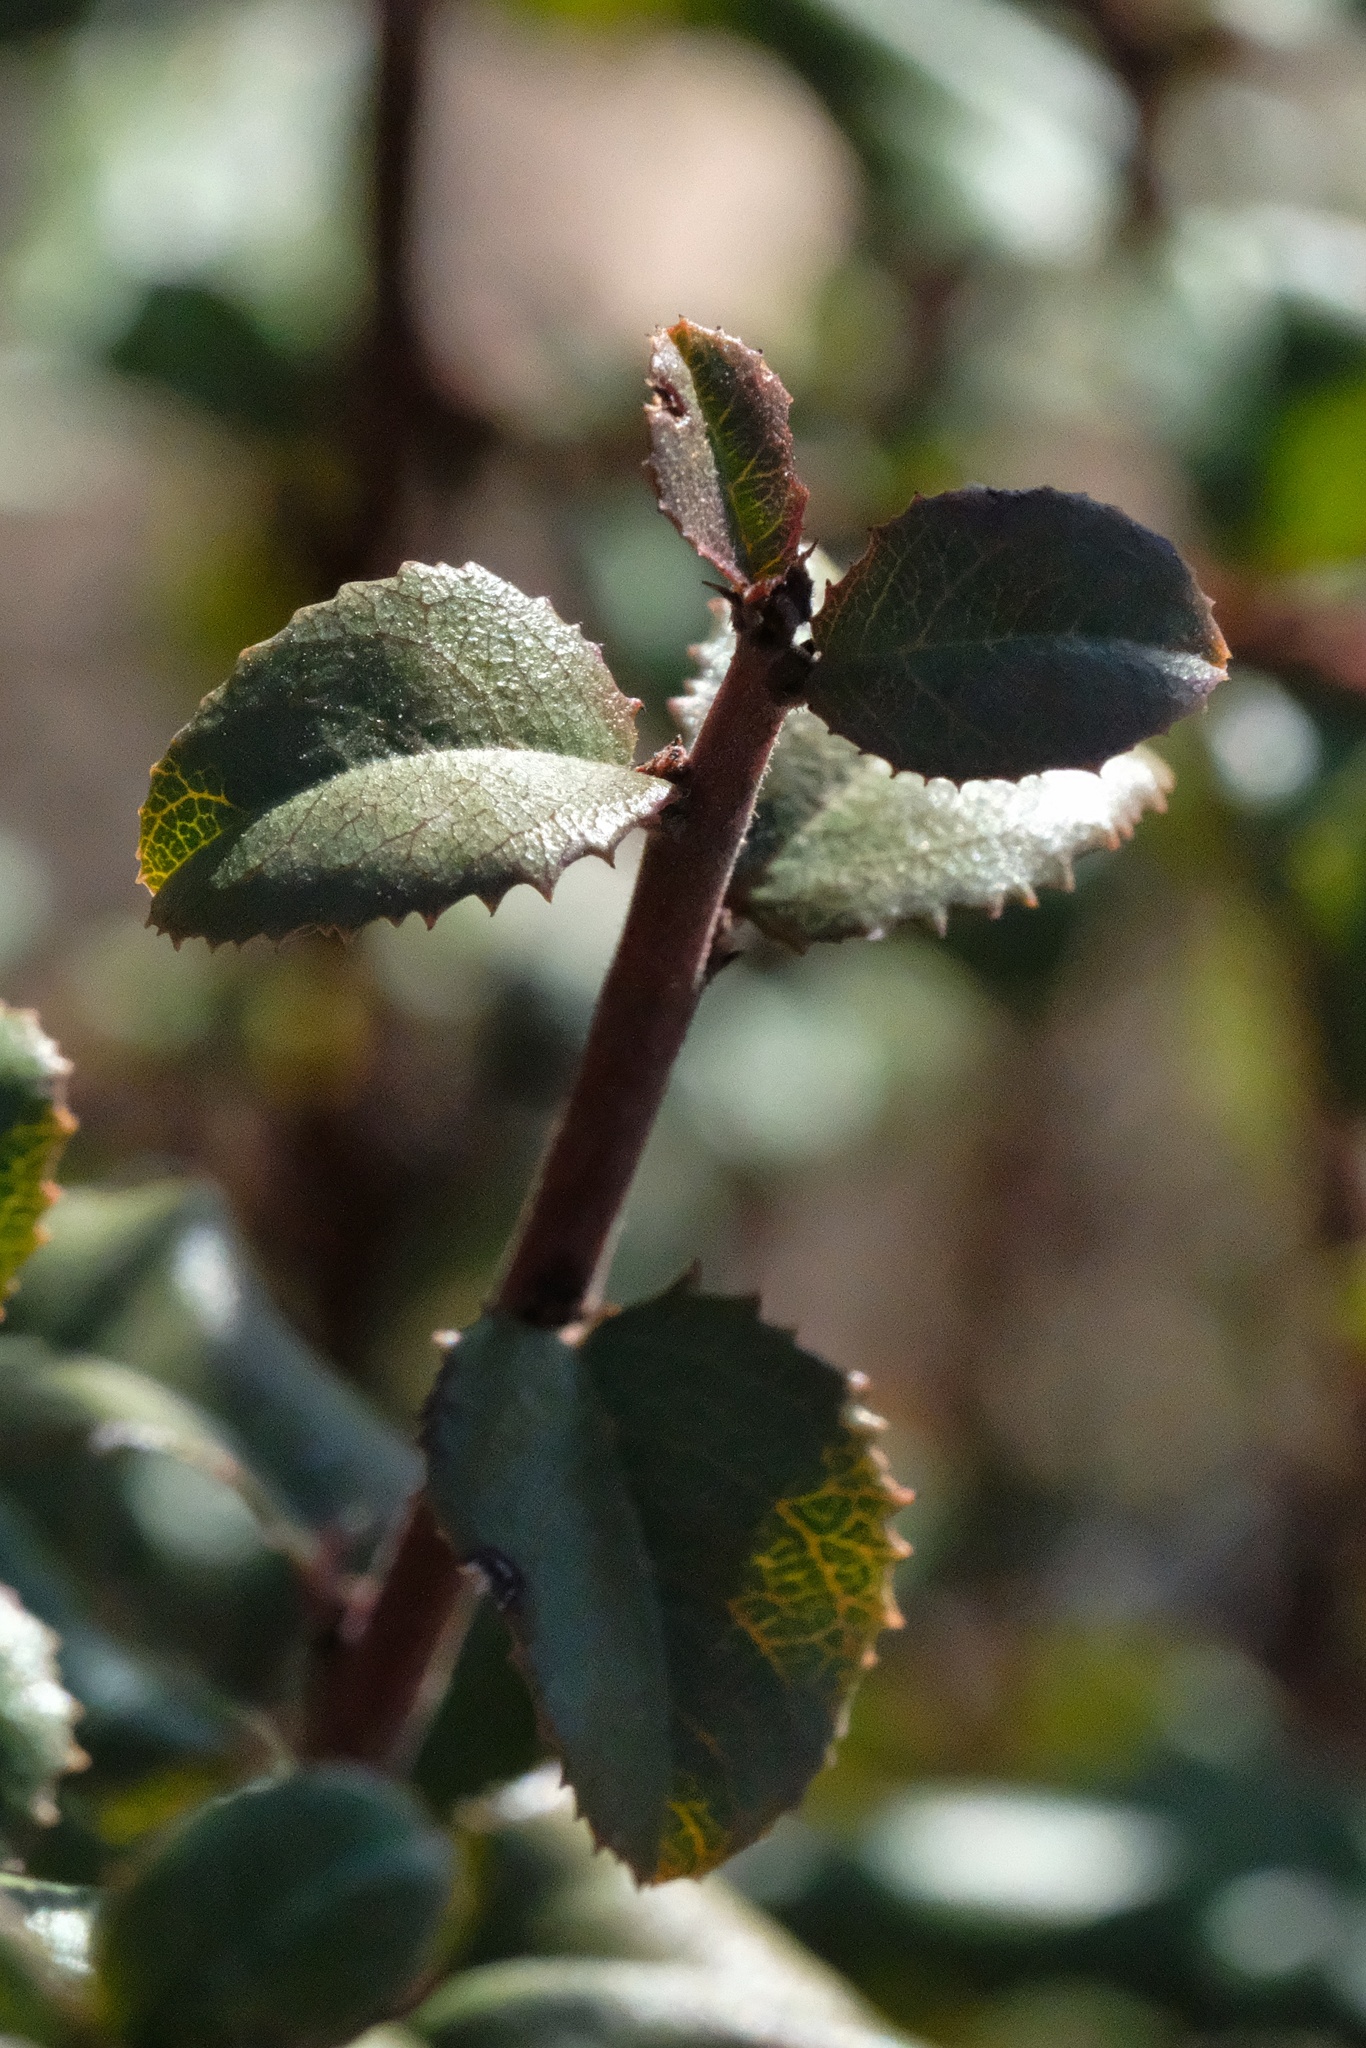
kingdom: Plantae
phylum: Tracheophyta
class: Magnoliopsida
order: Rosales
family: Rhamnaceae
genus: Endotropis
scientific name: Endotropis crocea
